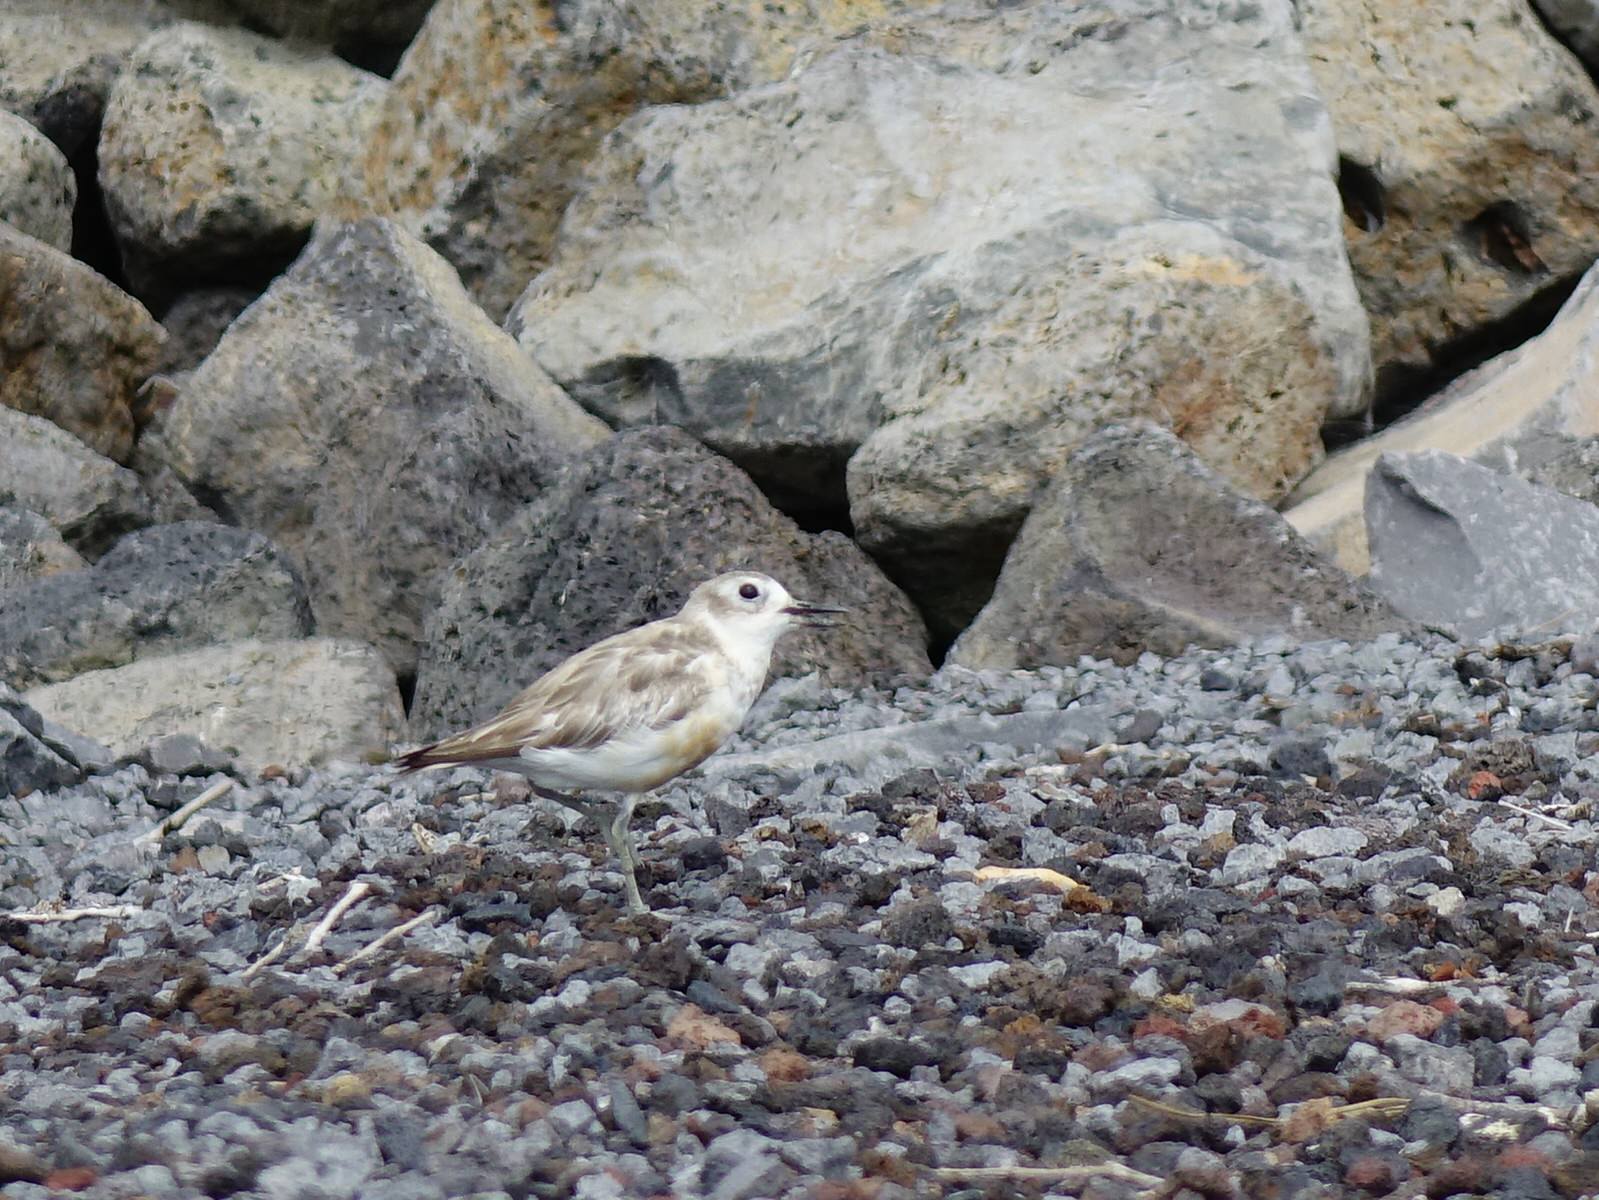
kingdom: Animalia
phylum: Chordata
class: Aves
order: Charadriiformes
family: Charadriidae
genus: Anarhynchus
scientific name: Anarhynchus
